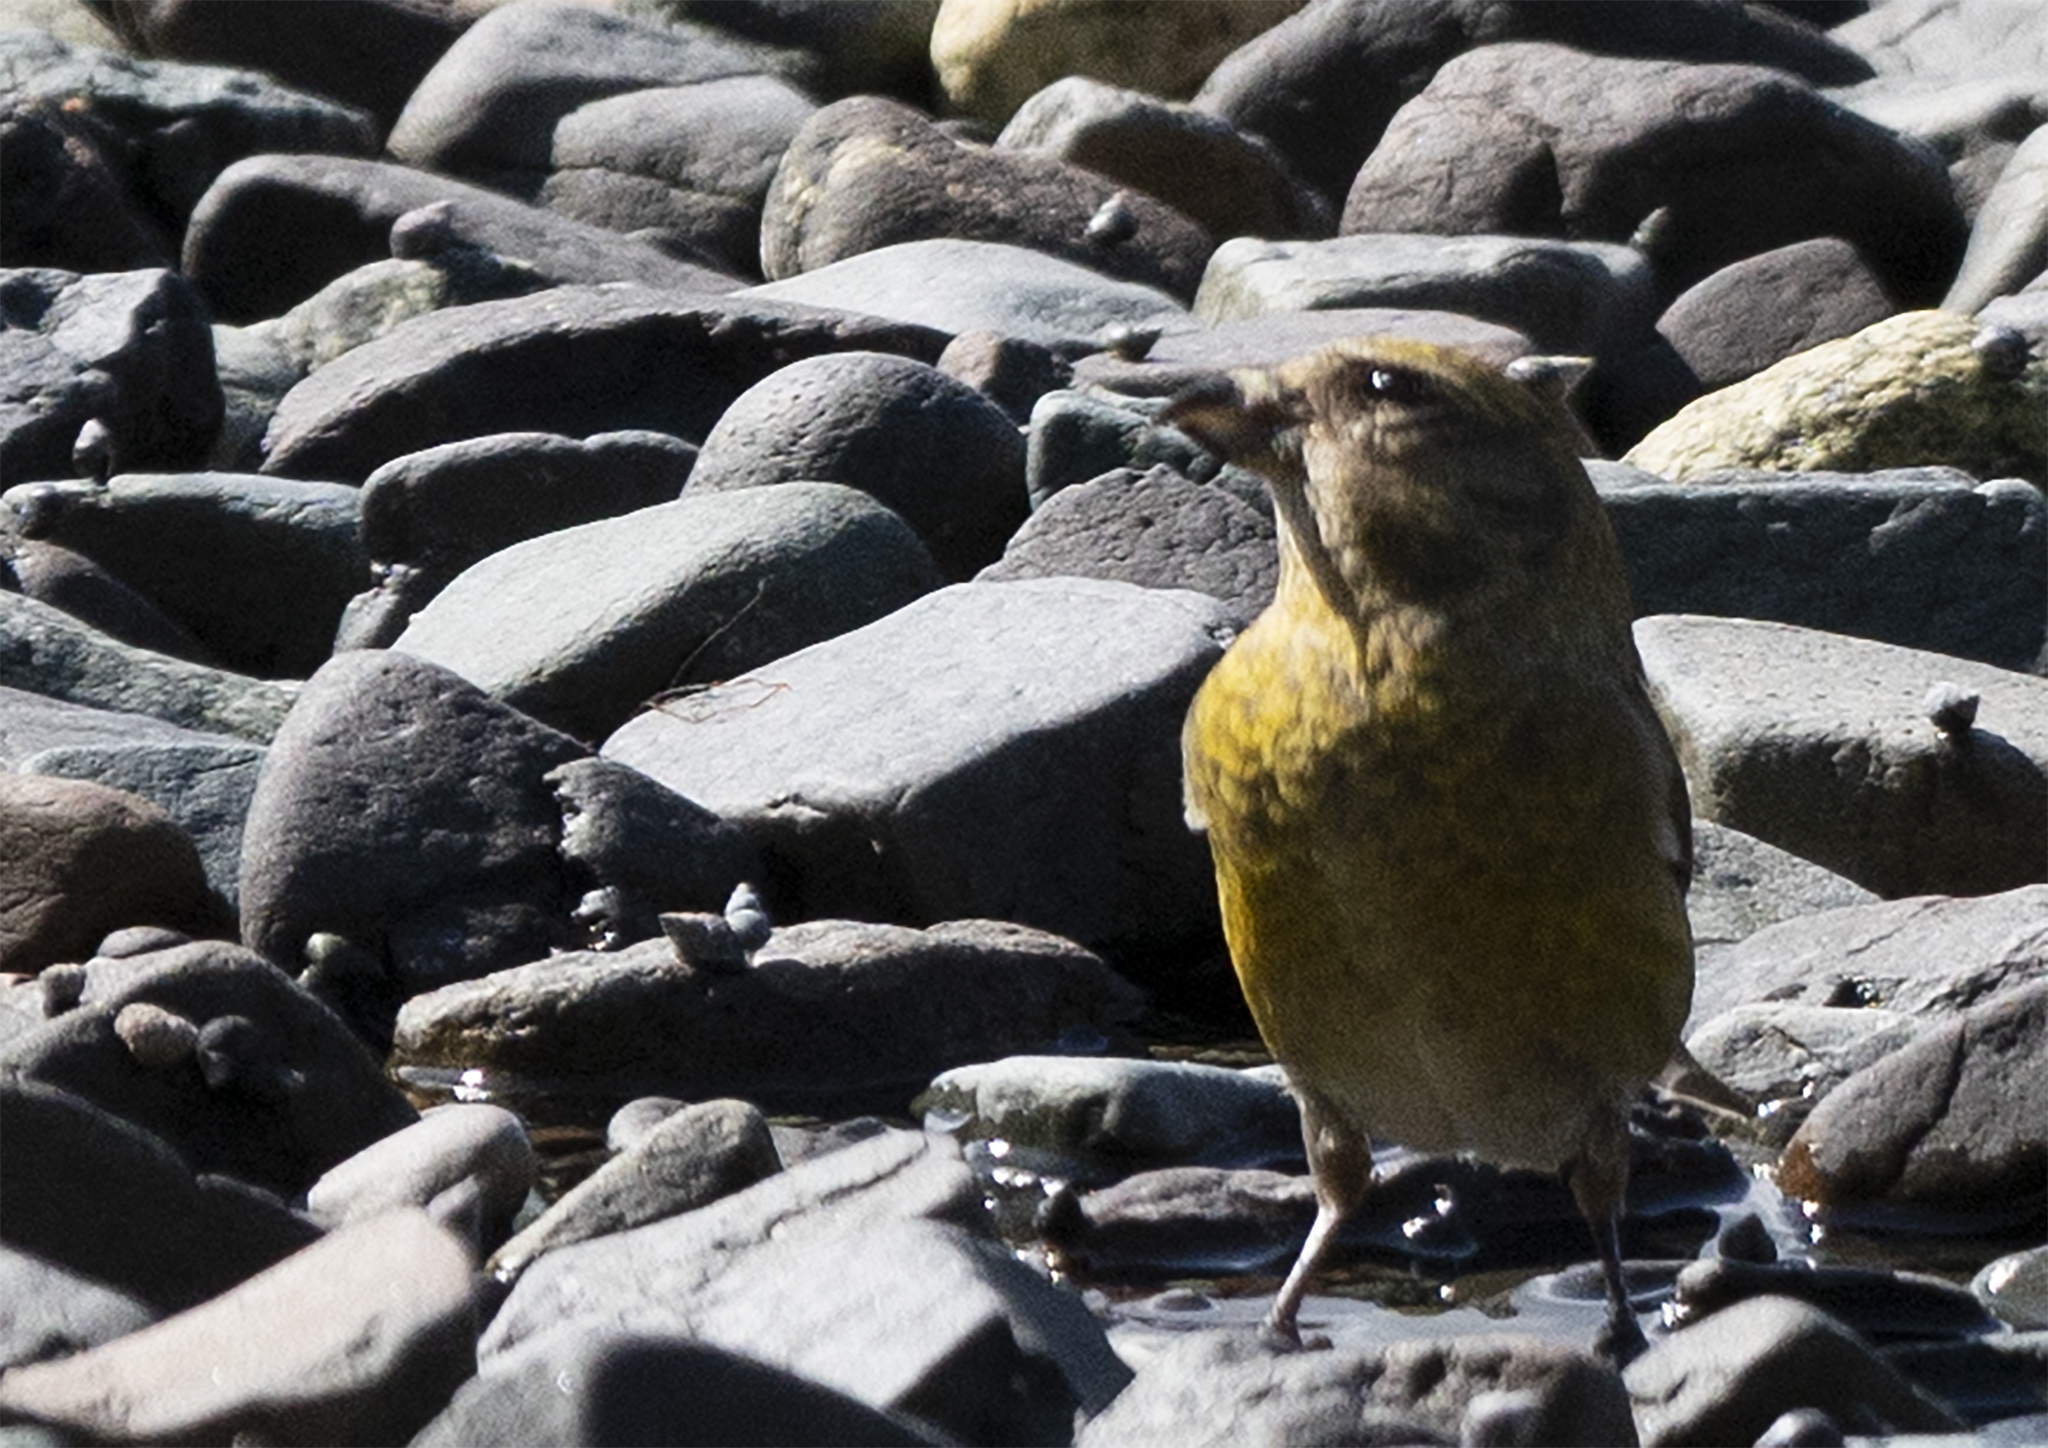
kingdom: Animalia
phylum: Chordata
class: Aves
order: Passeriformes
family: Fringillidae
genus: Loxia
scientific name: Loxia curvirostra
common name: Red crossbill
